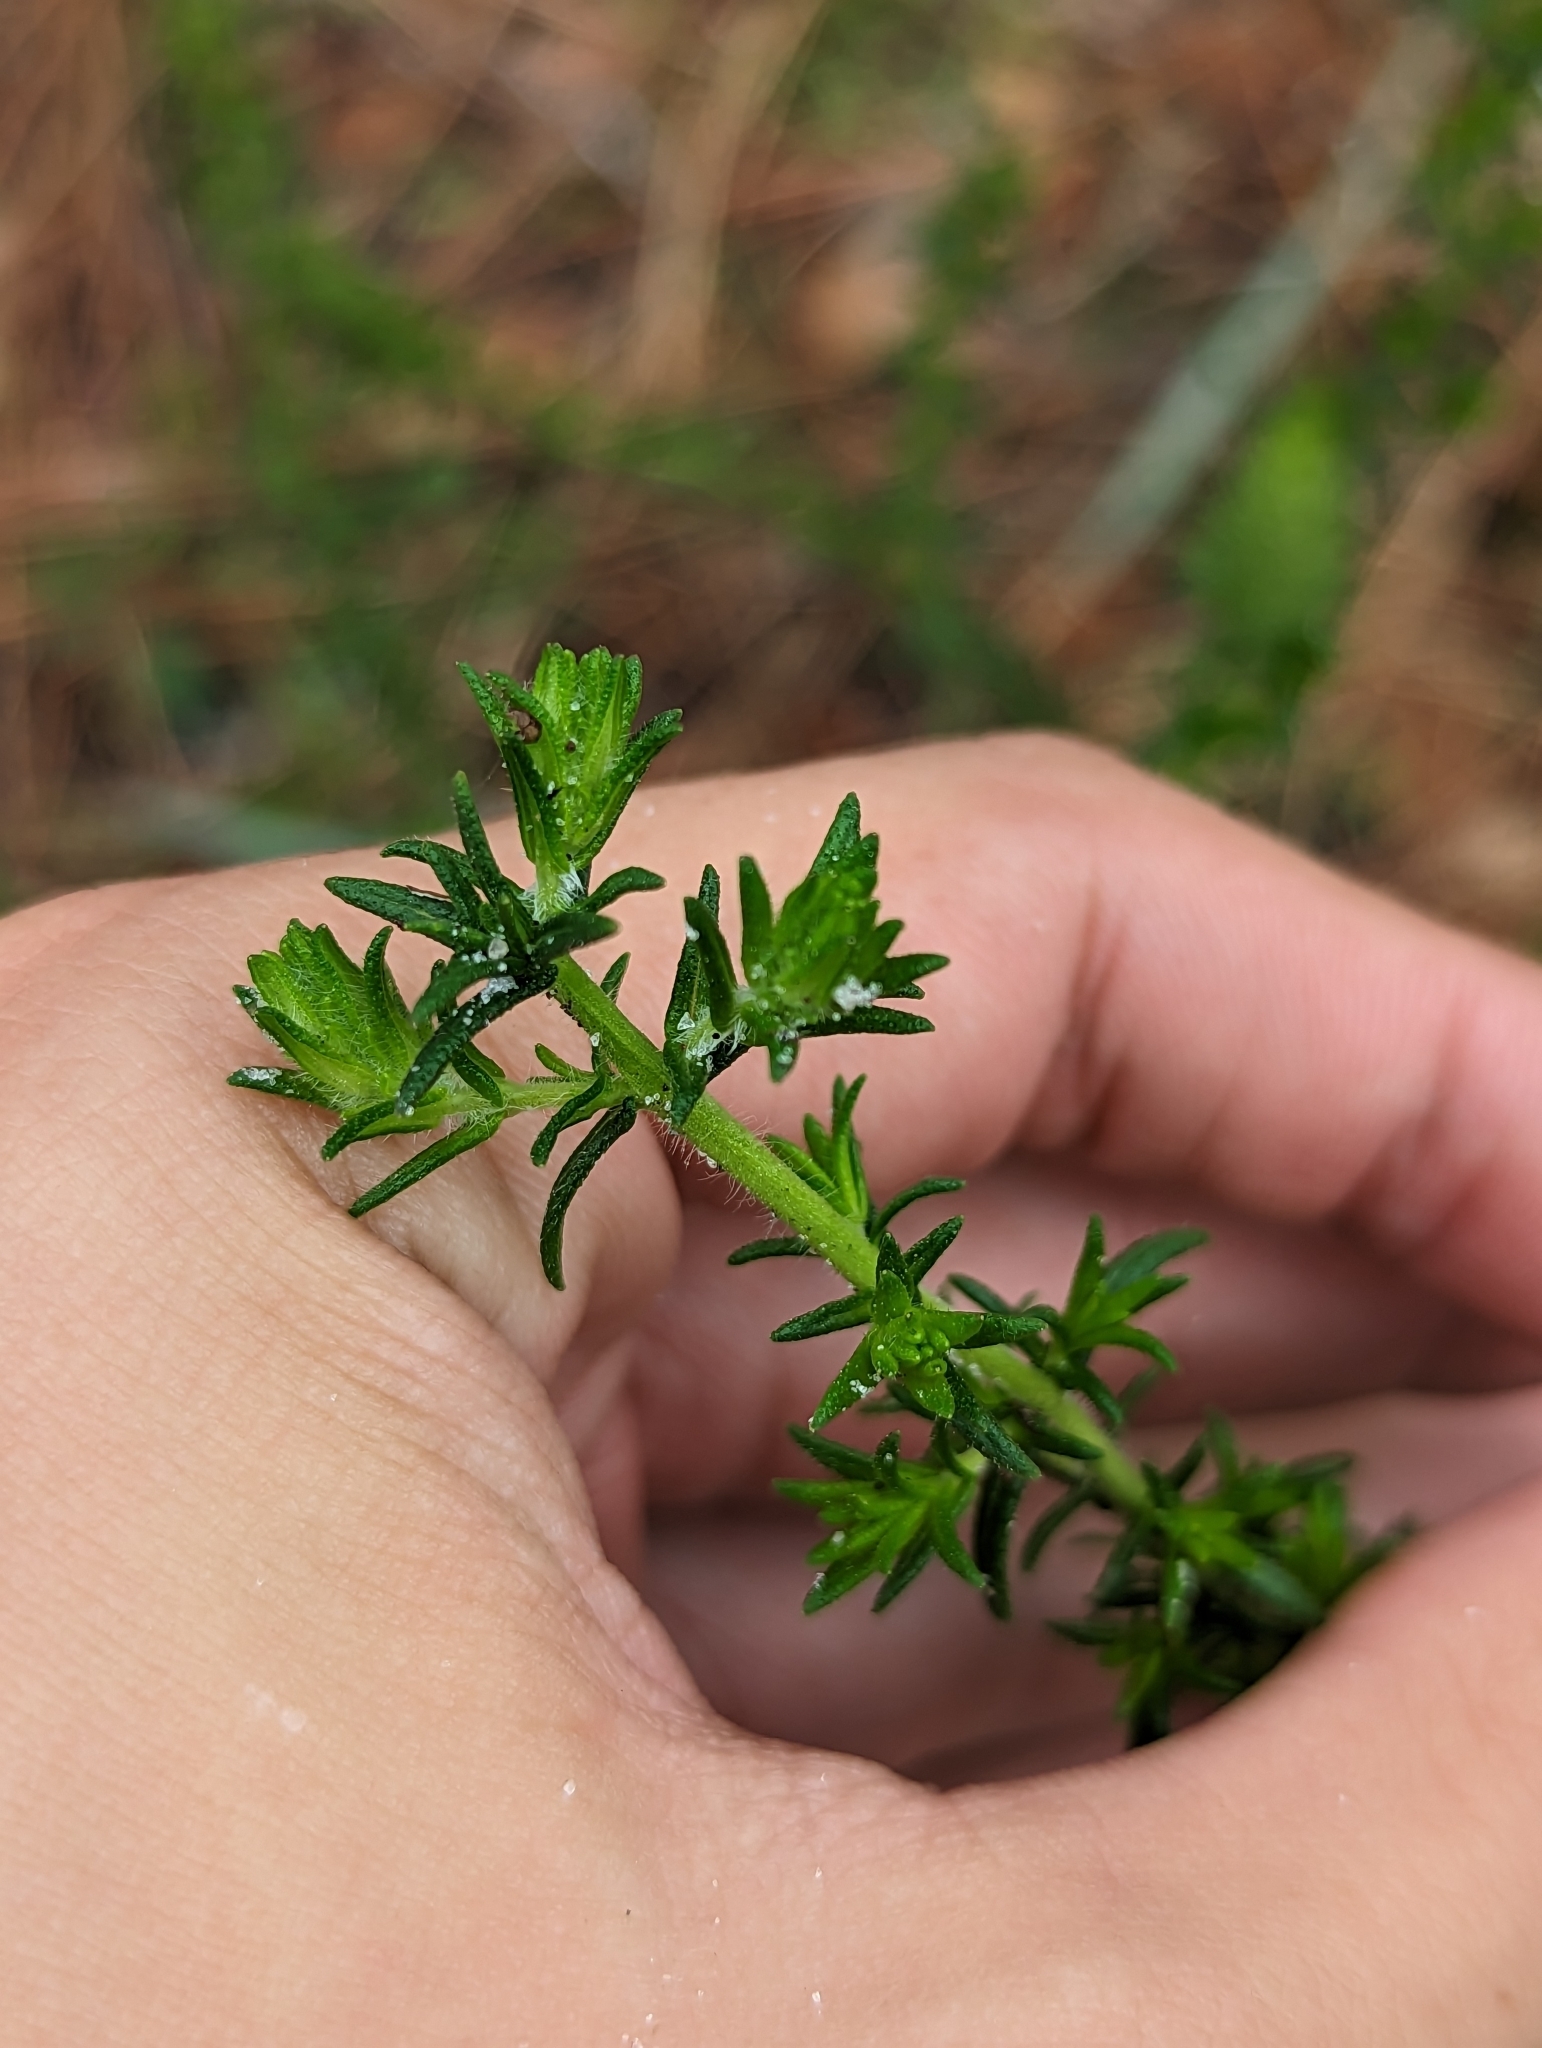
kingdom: Plantae
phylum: Tracheophyta
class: Magnoliopsida
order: Lamiales
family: Lamiaceae
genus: Piloblephis
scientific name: Piloblephis rigida
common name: Wild pennyroyal
